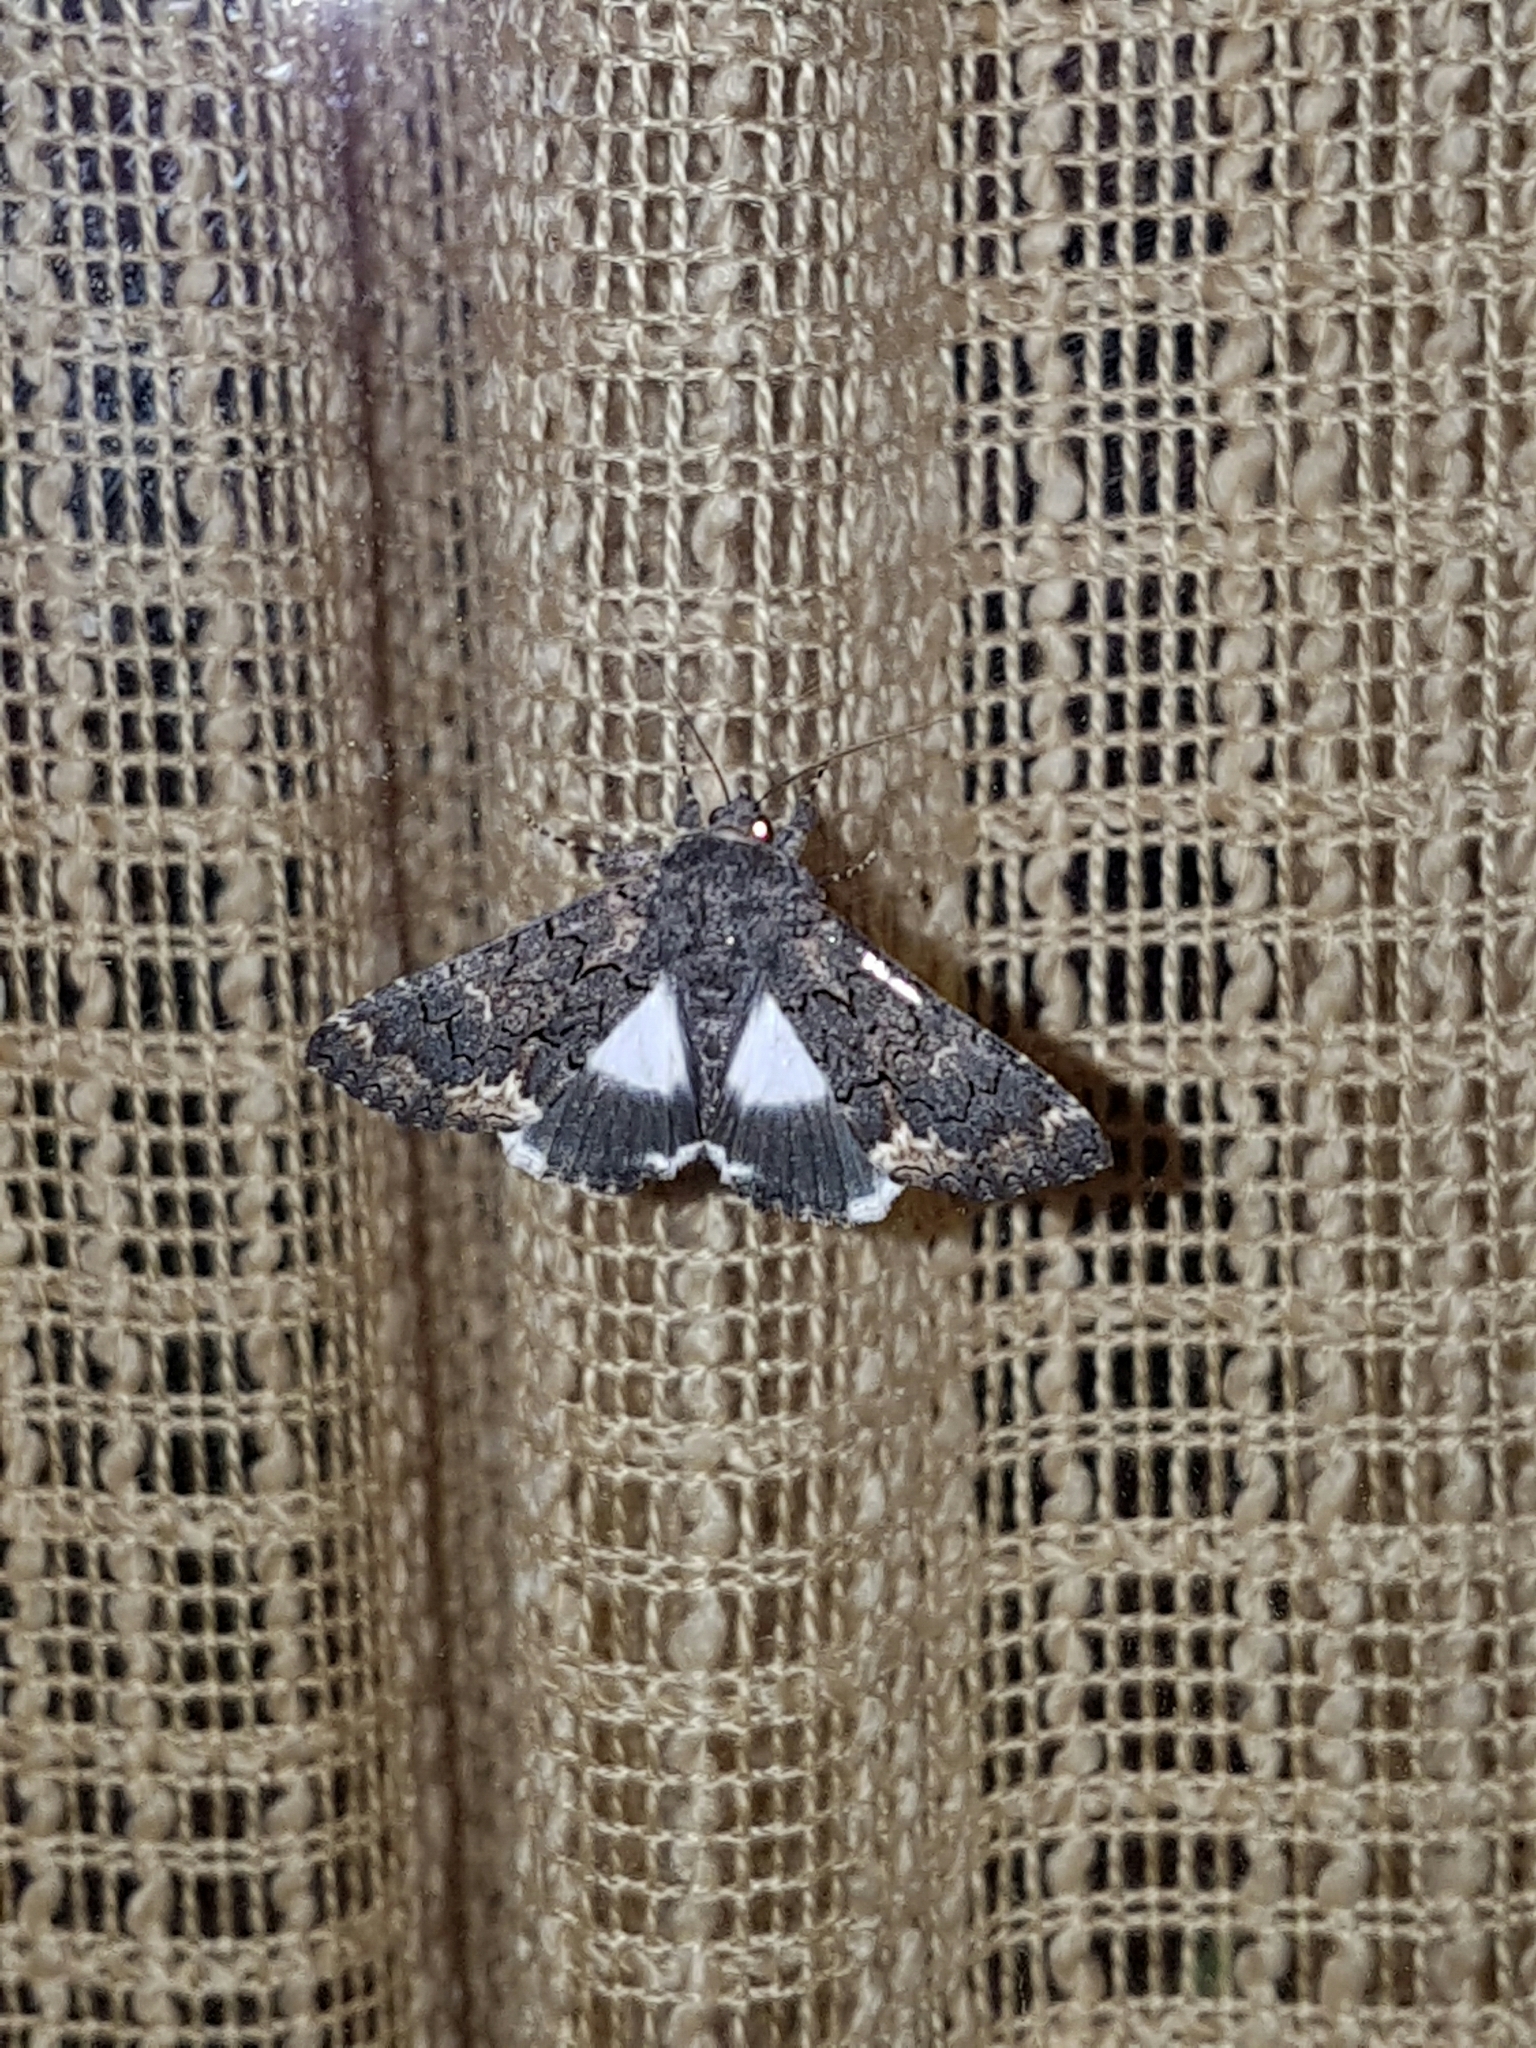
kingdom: Animalia
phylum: Arthropoda
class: Insecta
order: Lepidoptera
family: Erebidae
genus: Catephia
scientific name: Catephia alchymista
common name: Alchymist
